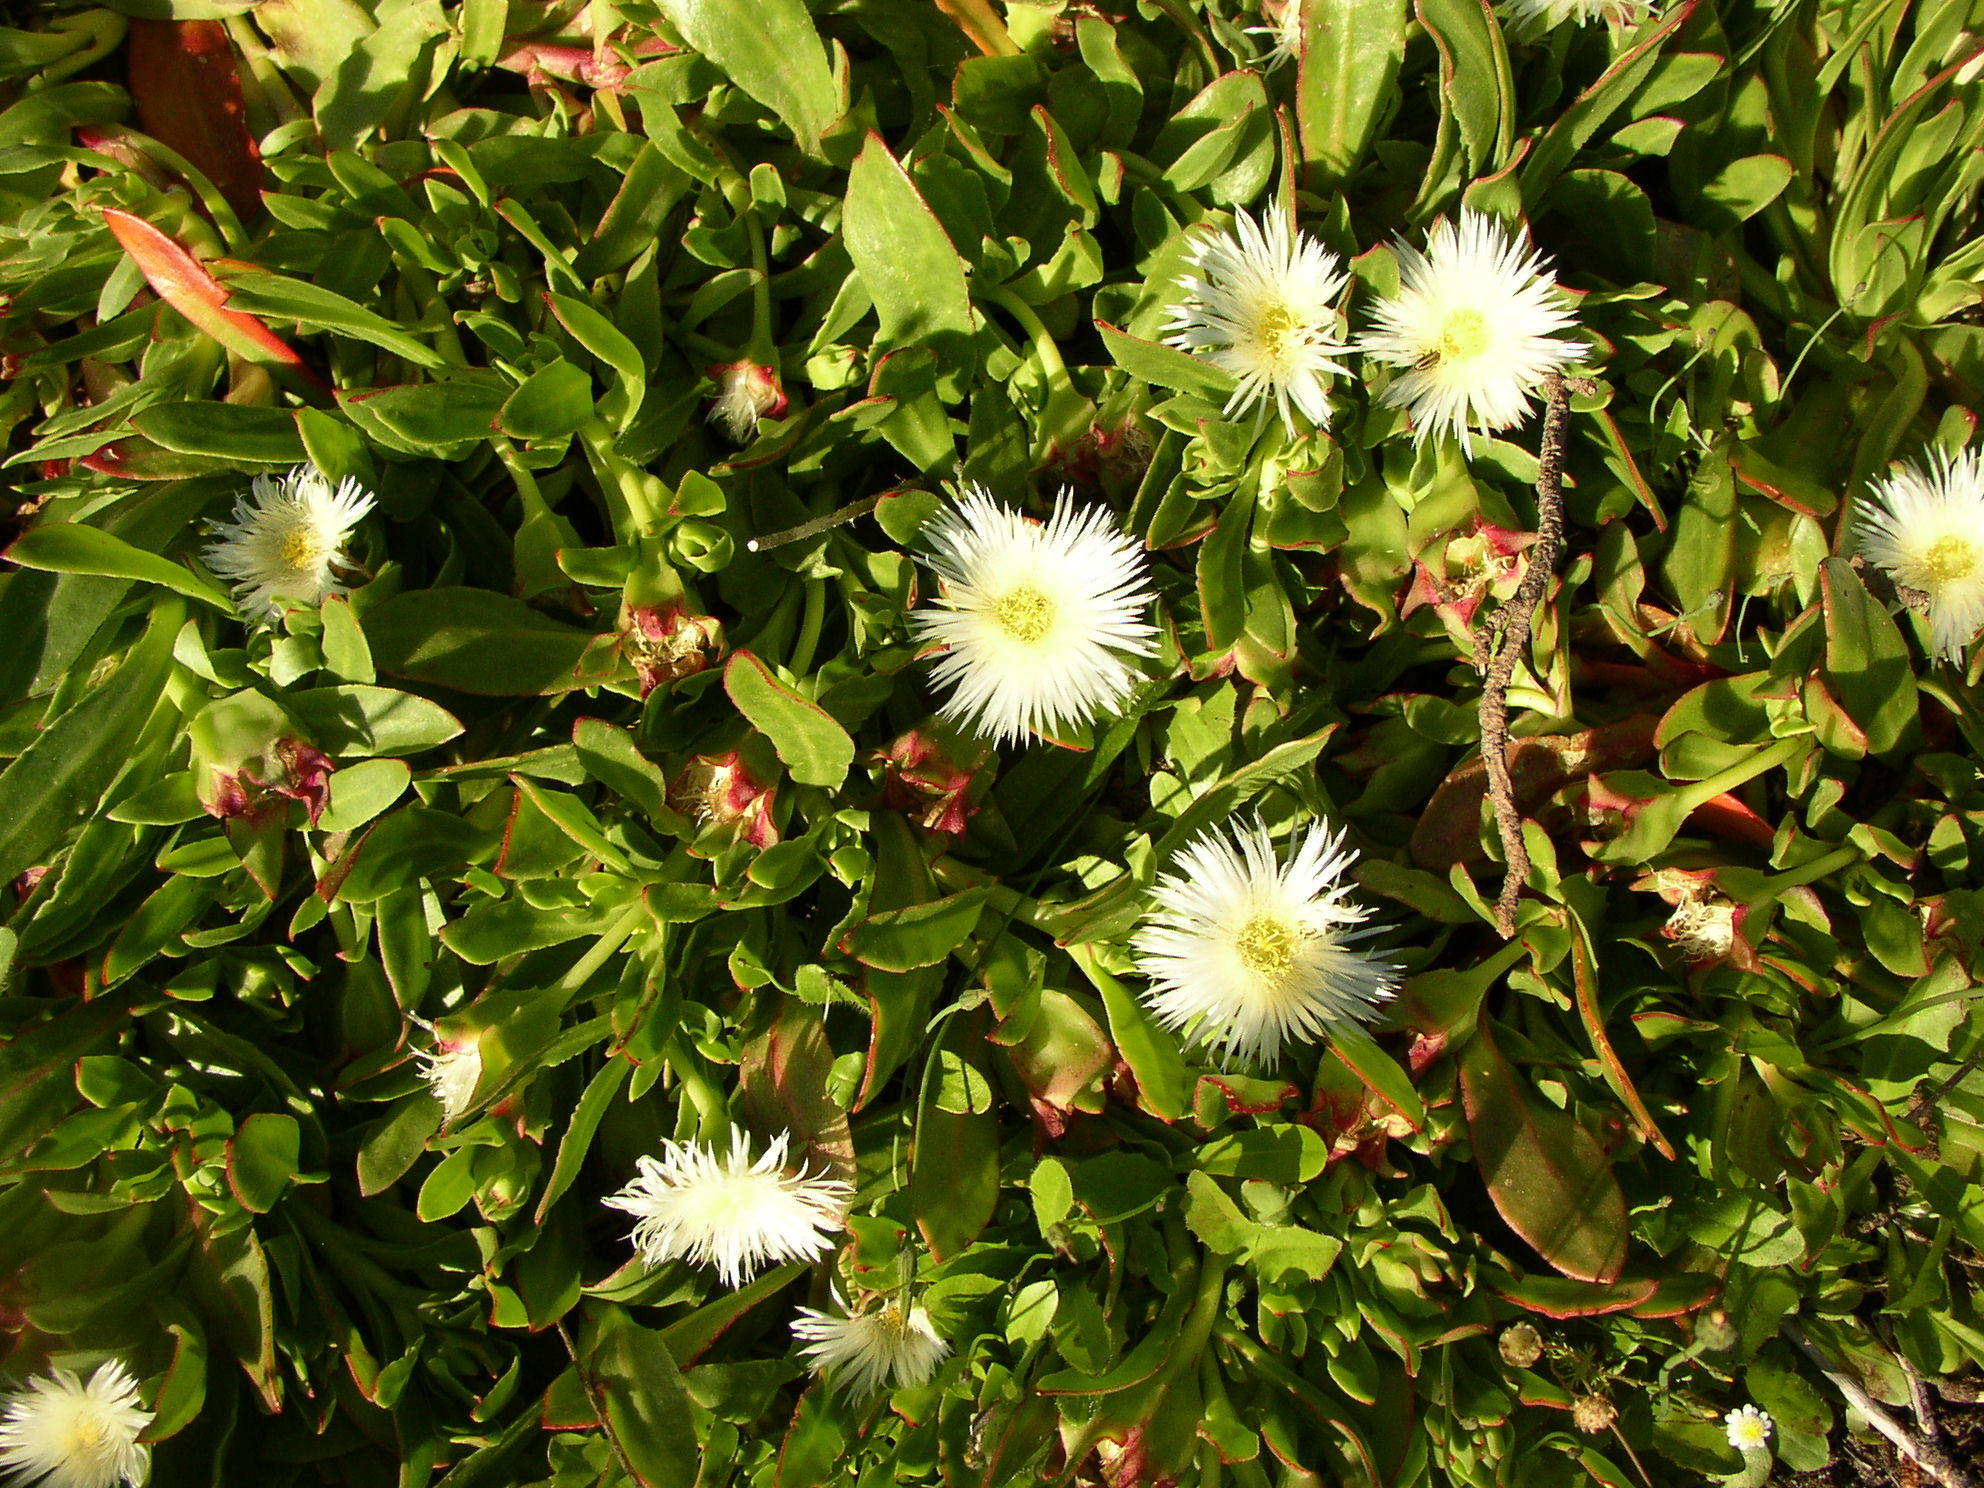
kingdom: Plantae
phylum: Tracheophyta
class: Magnoliopsida
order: Caryophyllales
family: Aizoaceae
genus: Skiatophytum
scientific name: Skiatophytum tripolium
